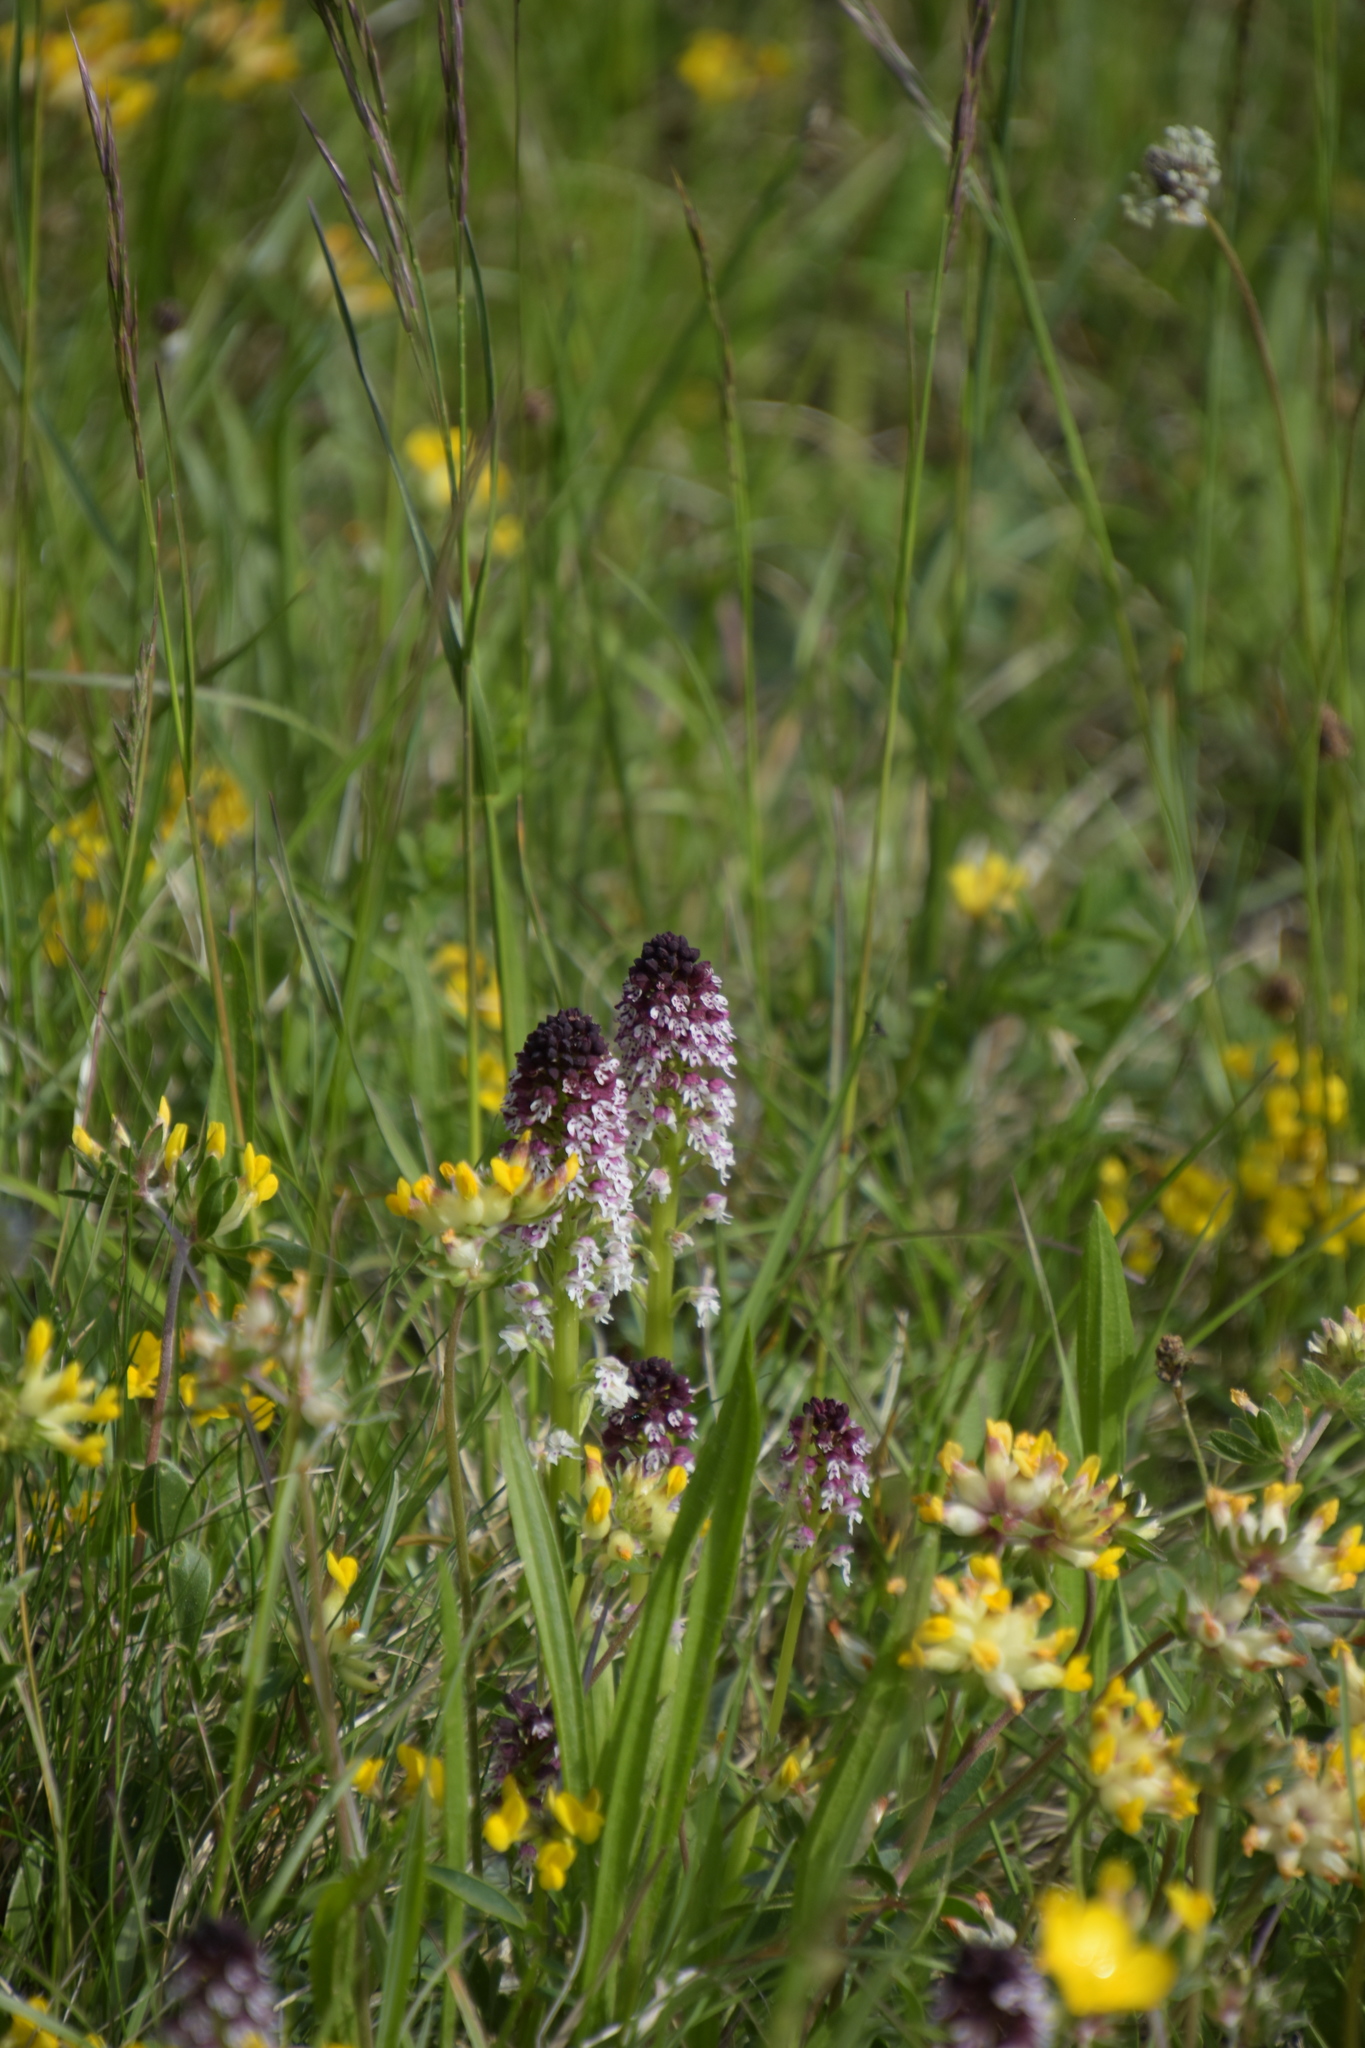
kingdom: Plantae
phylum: Tracheophyta
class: Liliopsida
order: Asparagales
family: Orchidaceae
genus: Neotinea
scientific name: Neotinea ustulata
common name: Burnt orchid
